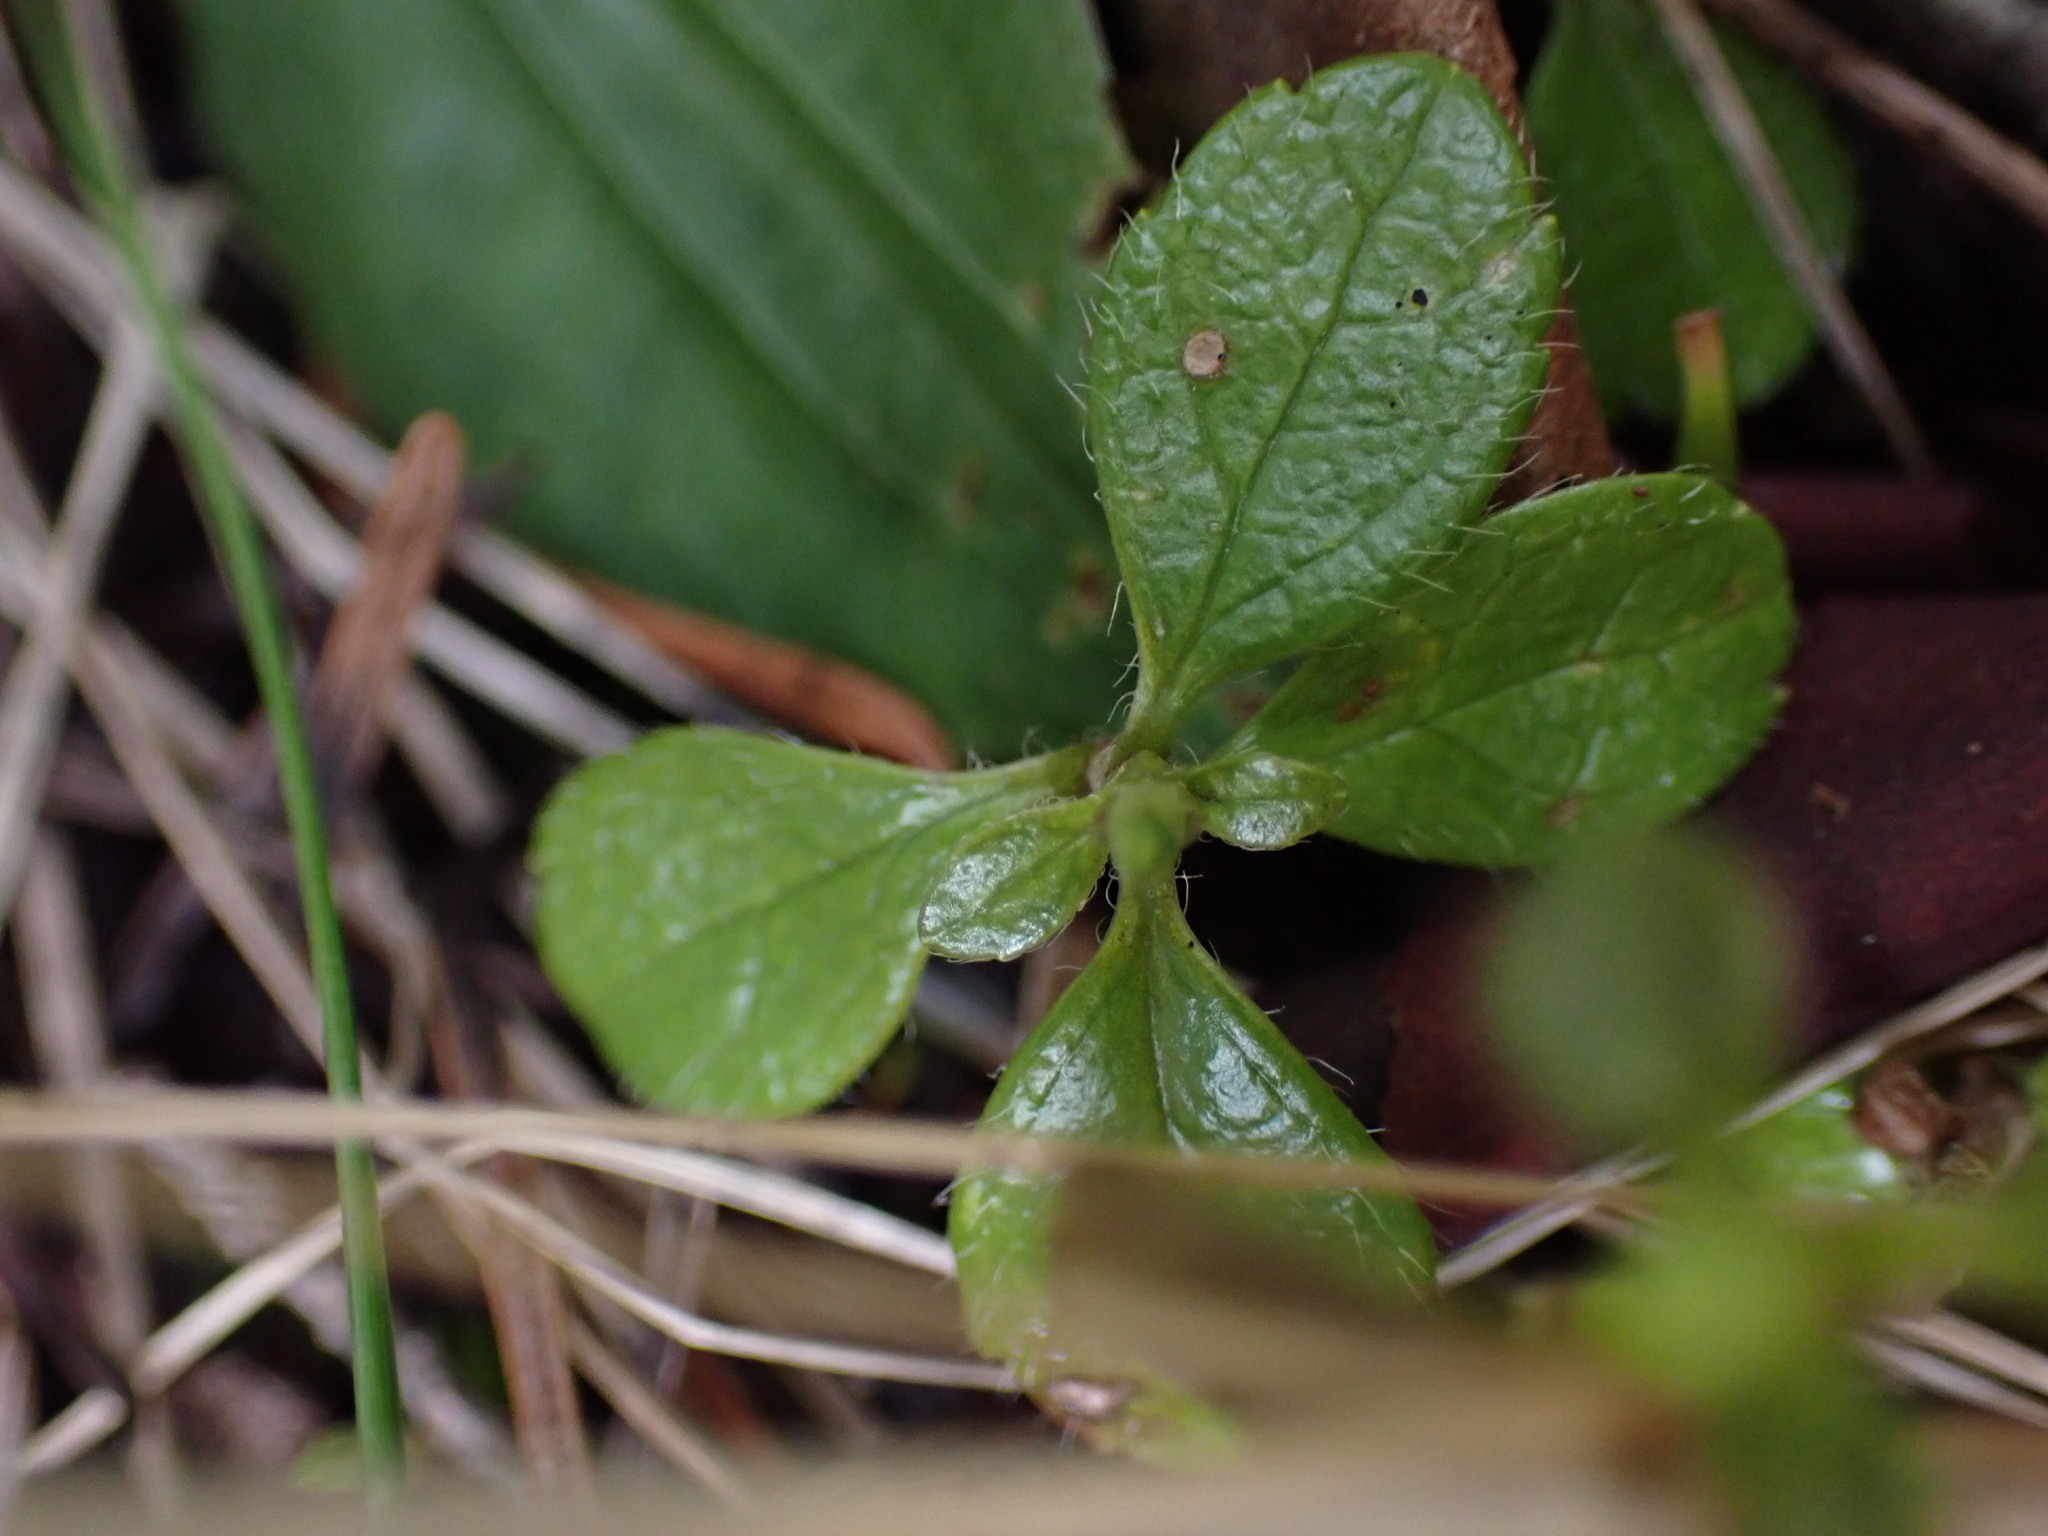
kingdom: Plantae
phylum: Tracheophyta
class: Magnoliopsida
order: Dipsacales
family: Caprifoliaceae
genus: Linnaea
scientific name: Linnaea borealis
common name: Twinflower
